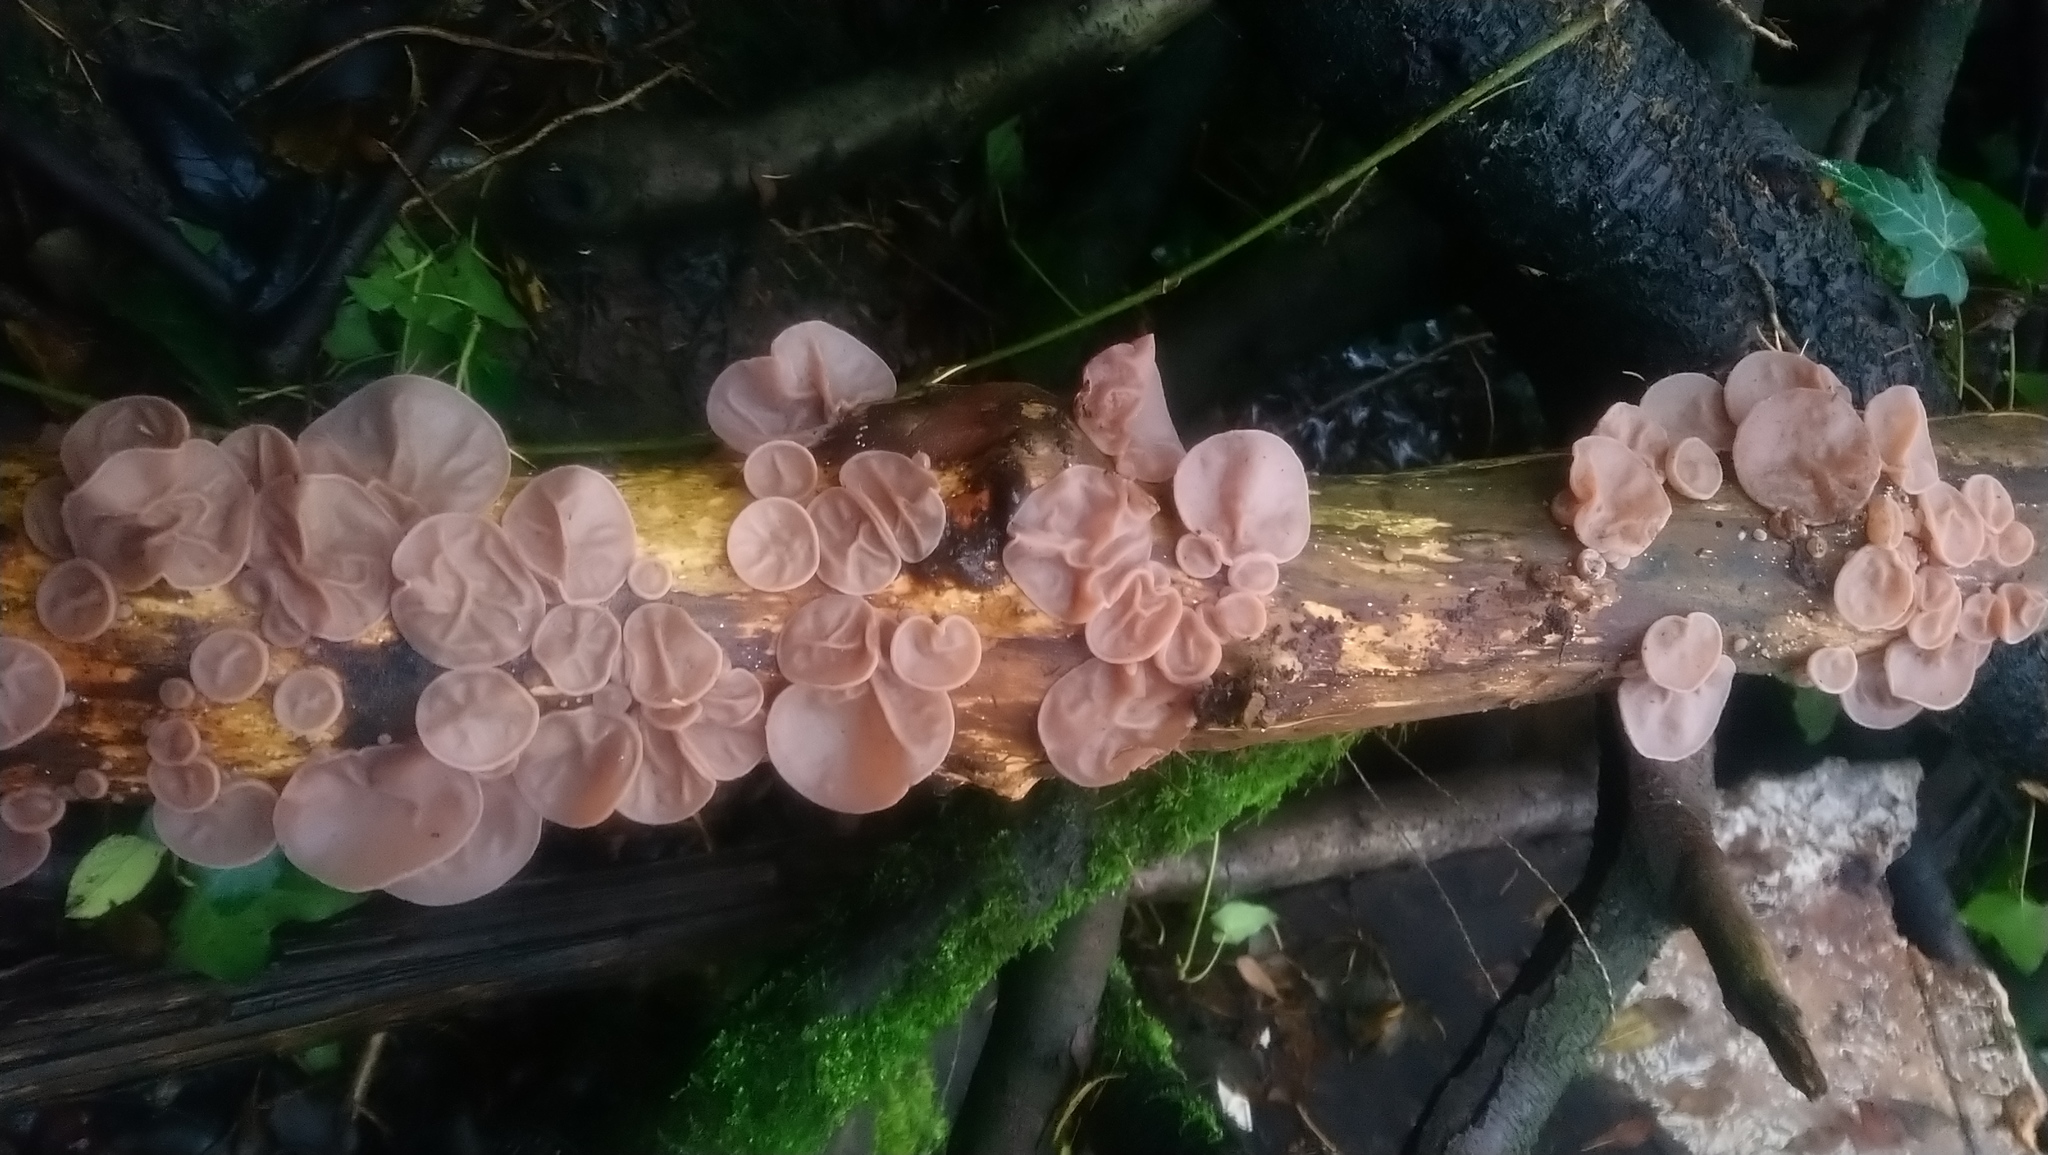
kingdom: Fungi
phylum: Basidiomycota
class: Agaricomycetes
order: Auriculariales
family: Auriculariaceae
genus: Auricularia
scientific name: Auricularia auricula-judae
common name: Jelly ear
